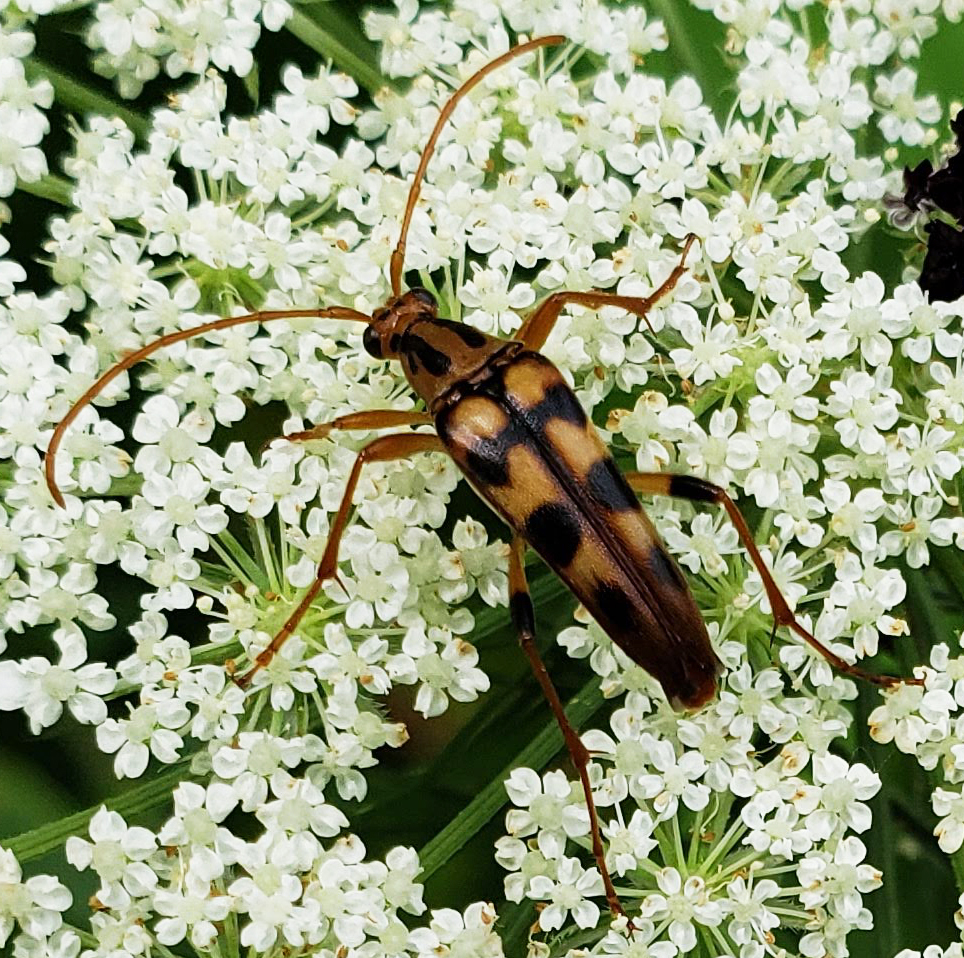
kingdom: Animalia
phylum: Arthropoda
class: Insecta
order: Coleoptera
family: Cerambycidae
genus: Strangalia
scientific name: Strangalia luteicornis
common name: Yellow-horned flower longhorn beetle
